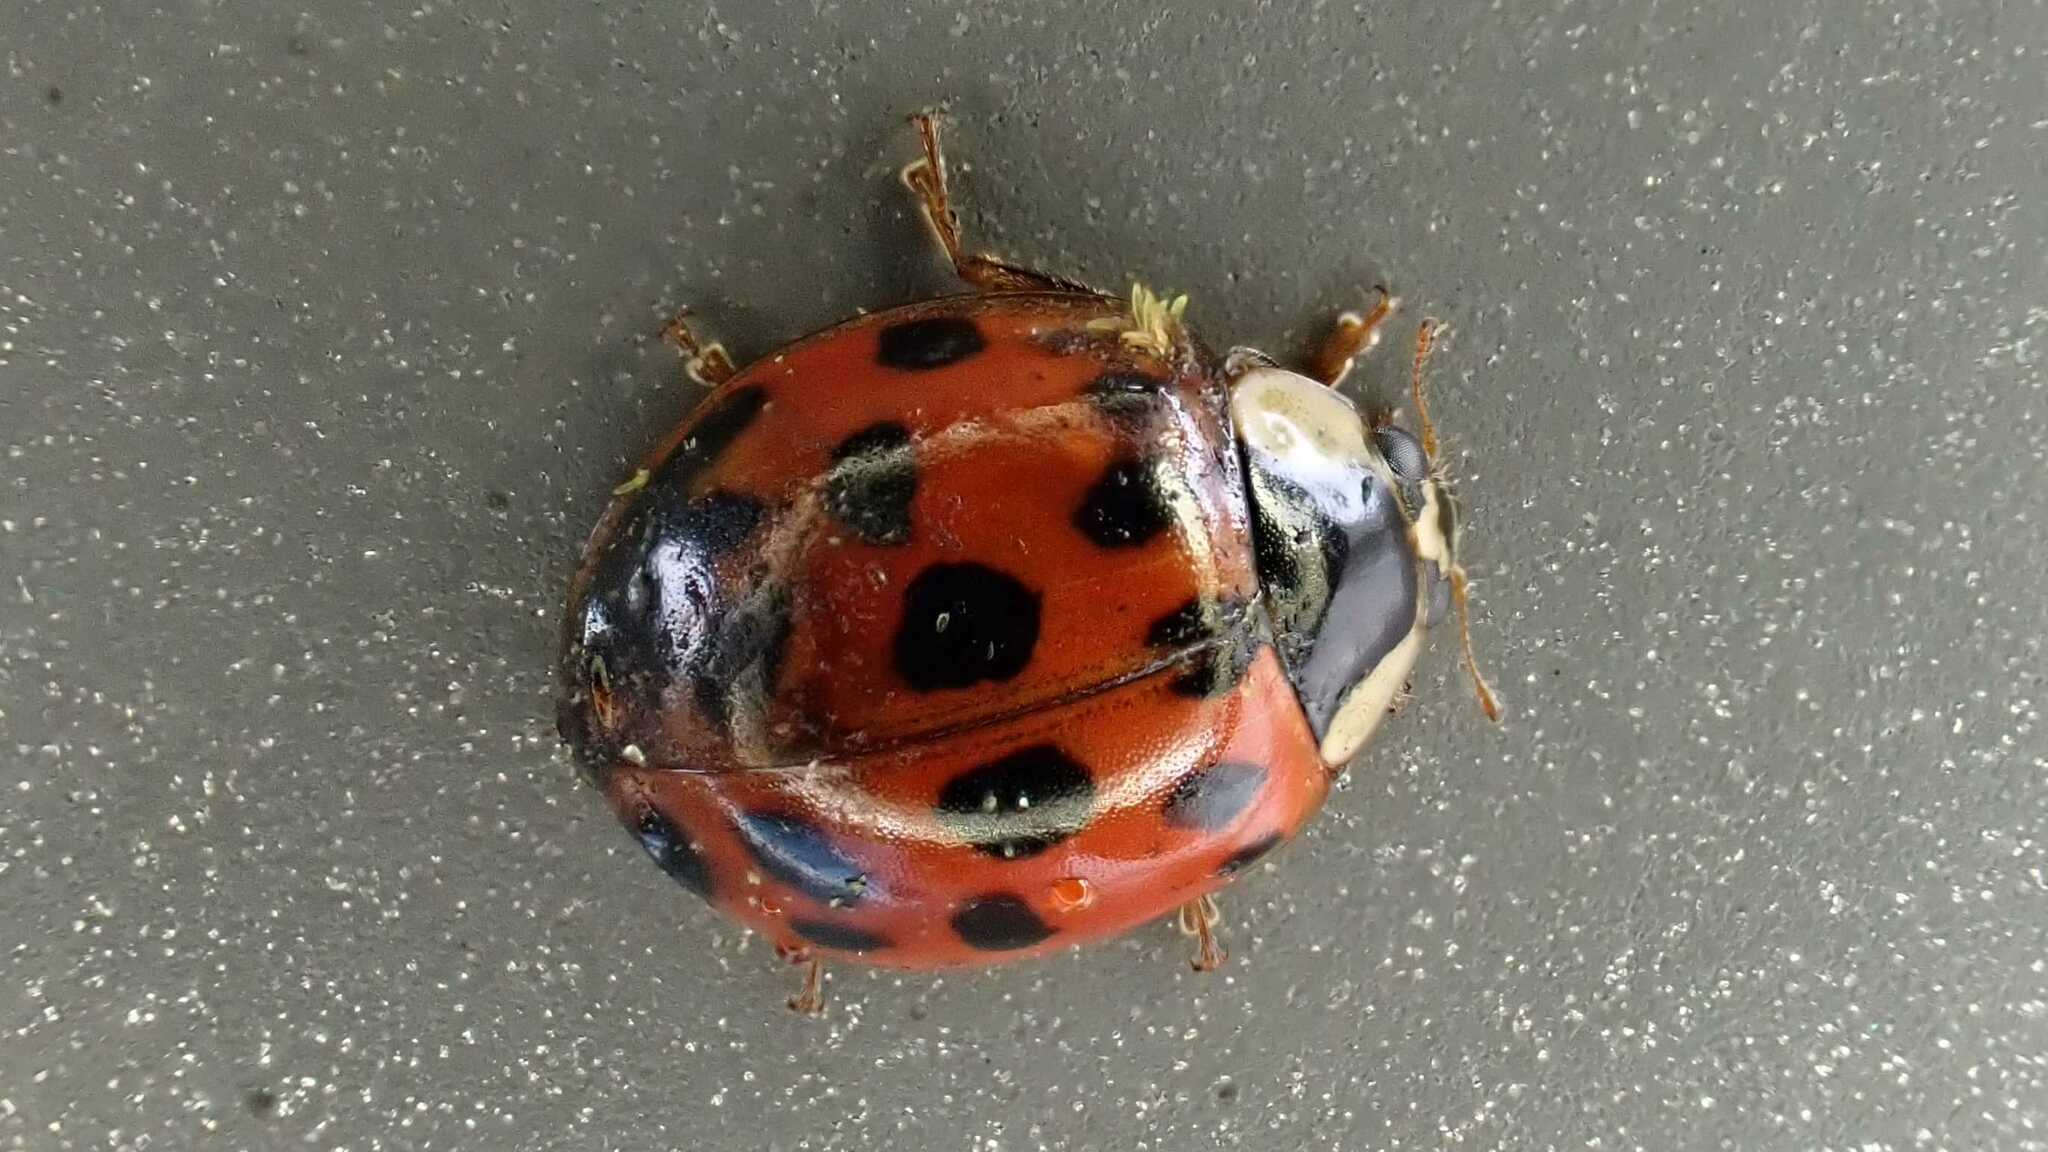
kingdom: Animalia
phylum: Arthropoda
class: Insecta
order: Coleoptera
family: Coccinellidae
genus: Harmonia
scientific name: Harmonia axyridis
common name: Harlequin ladybird
